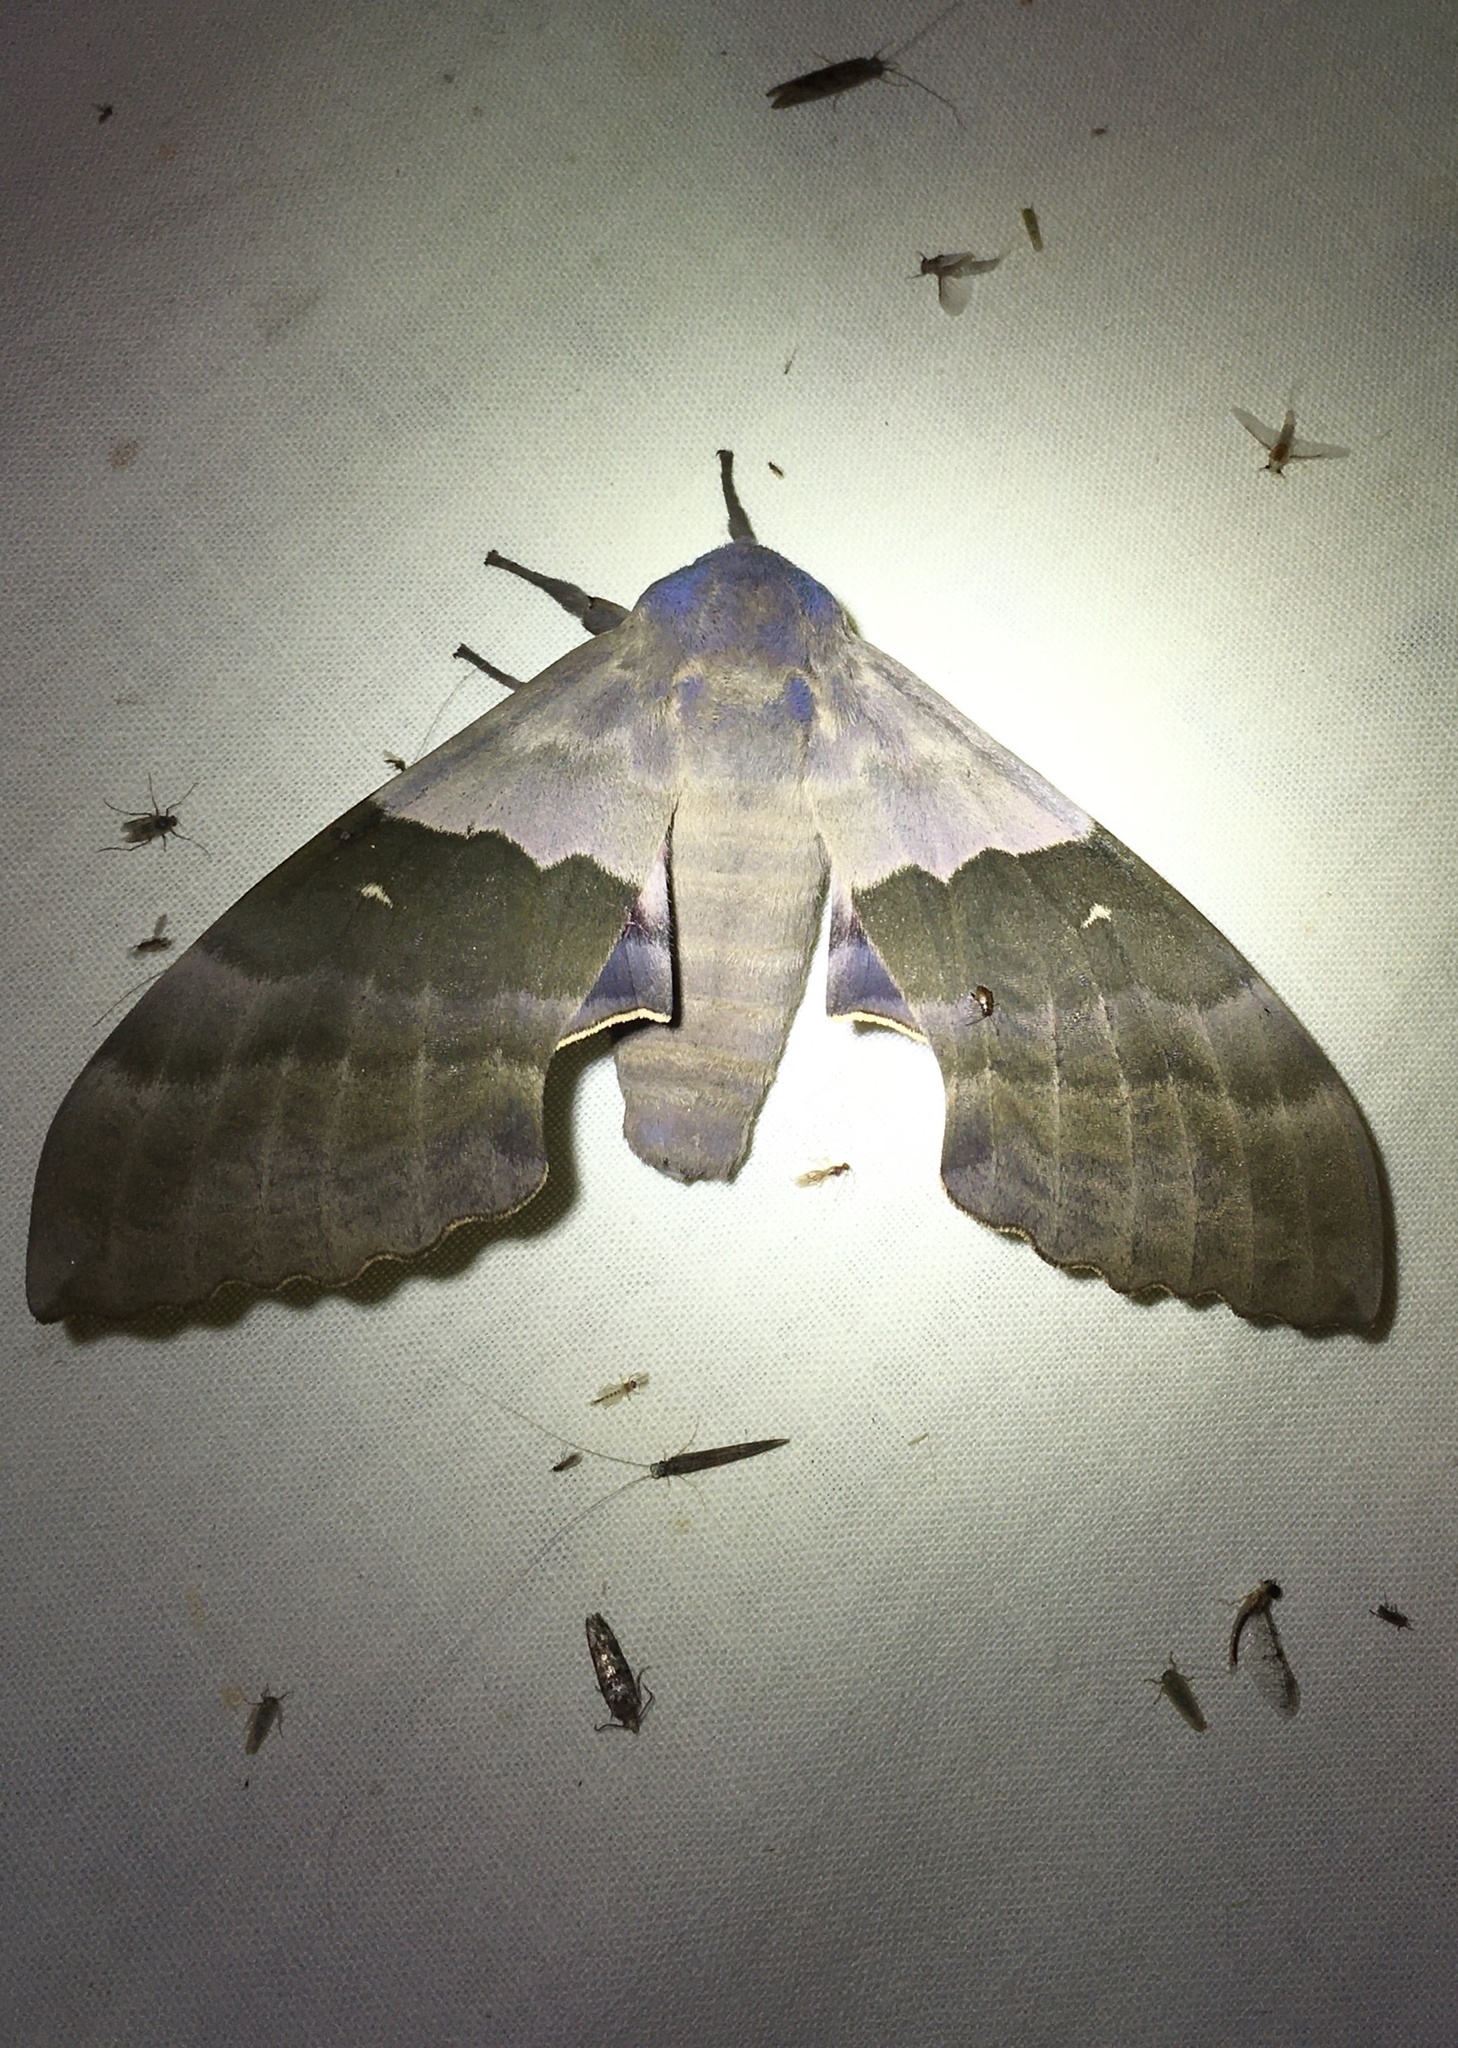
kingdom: Animalia
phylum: Arthropoda
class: Insecta
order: Lepidoptera
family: Sphingidae
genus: Pachysphinx
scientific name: Pachysphinx modesta
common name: Big poplar sphinx
